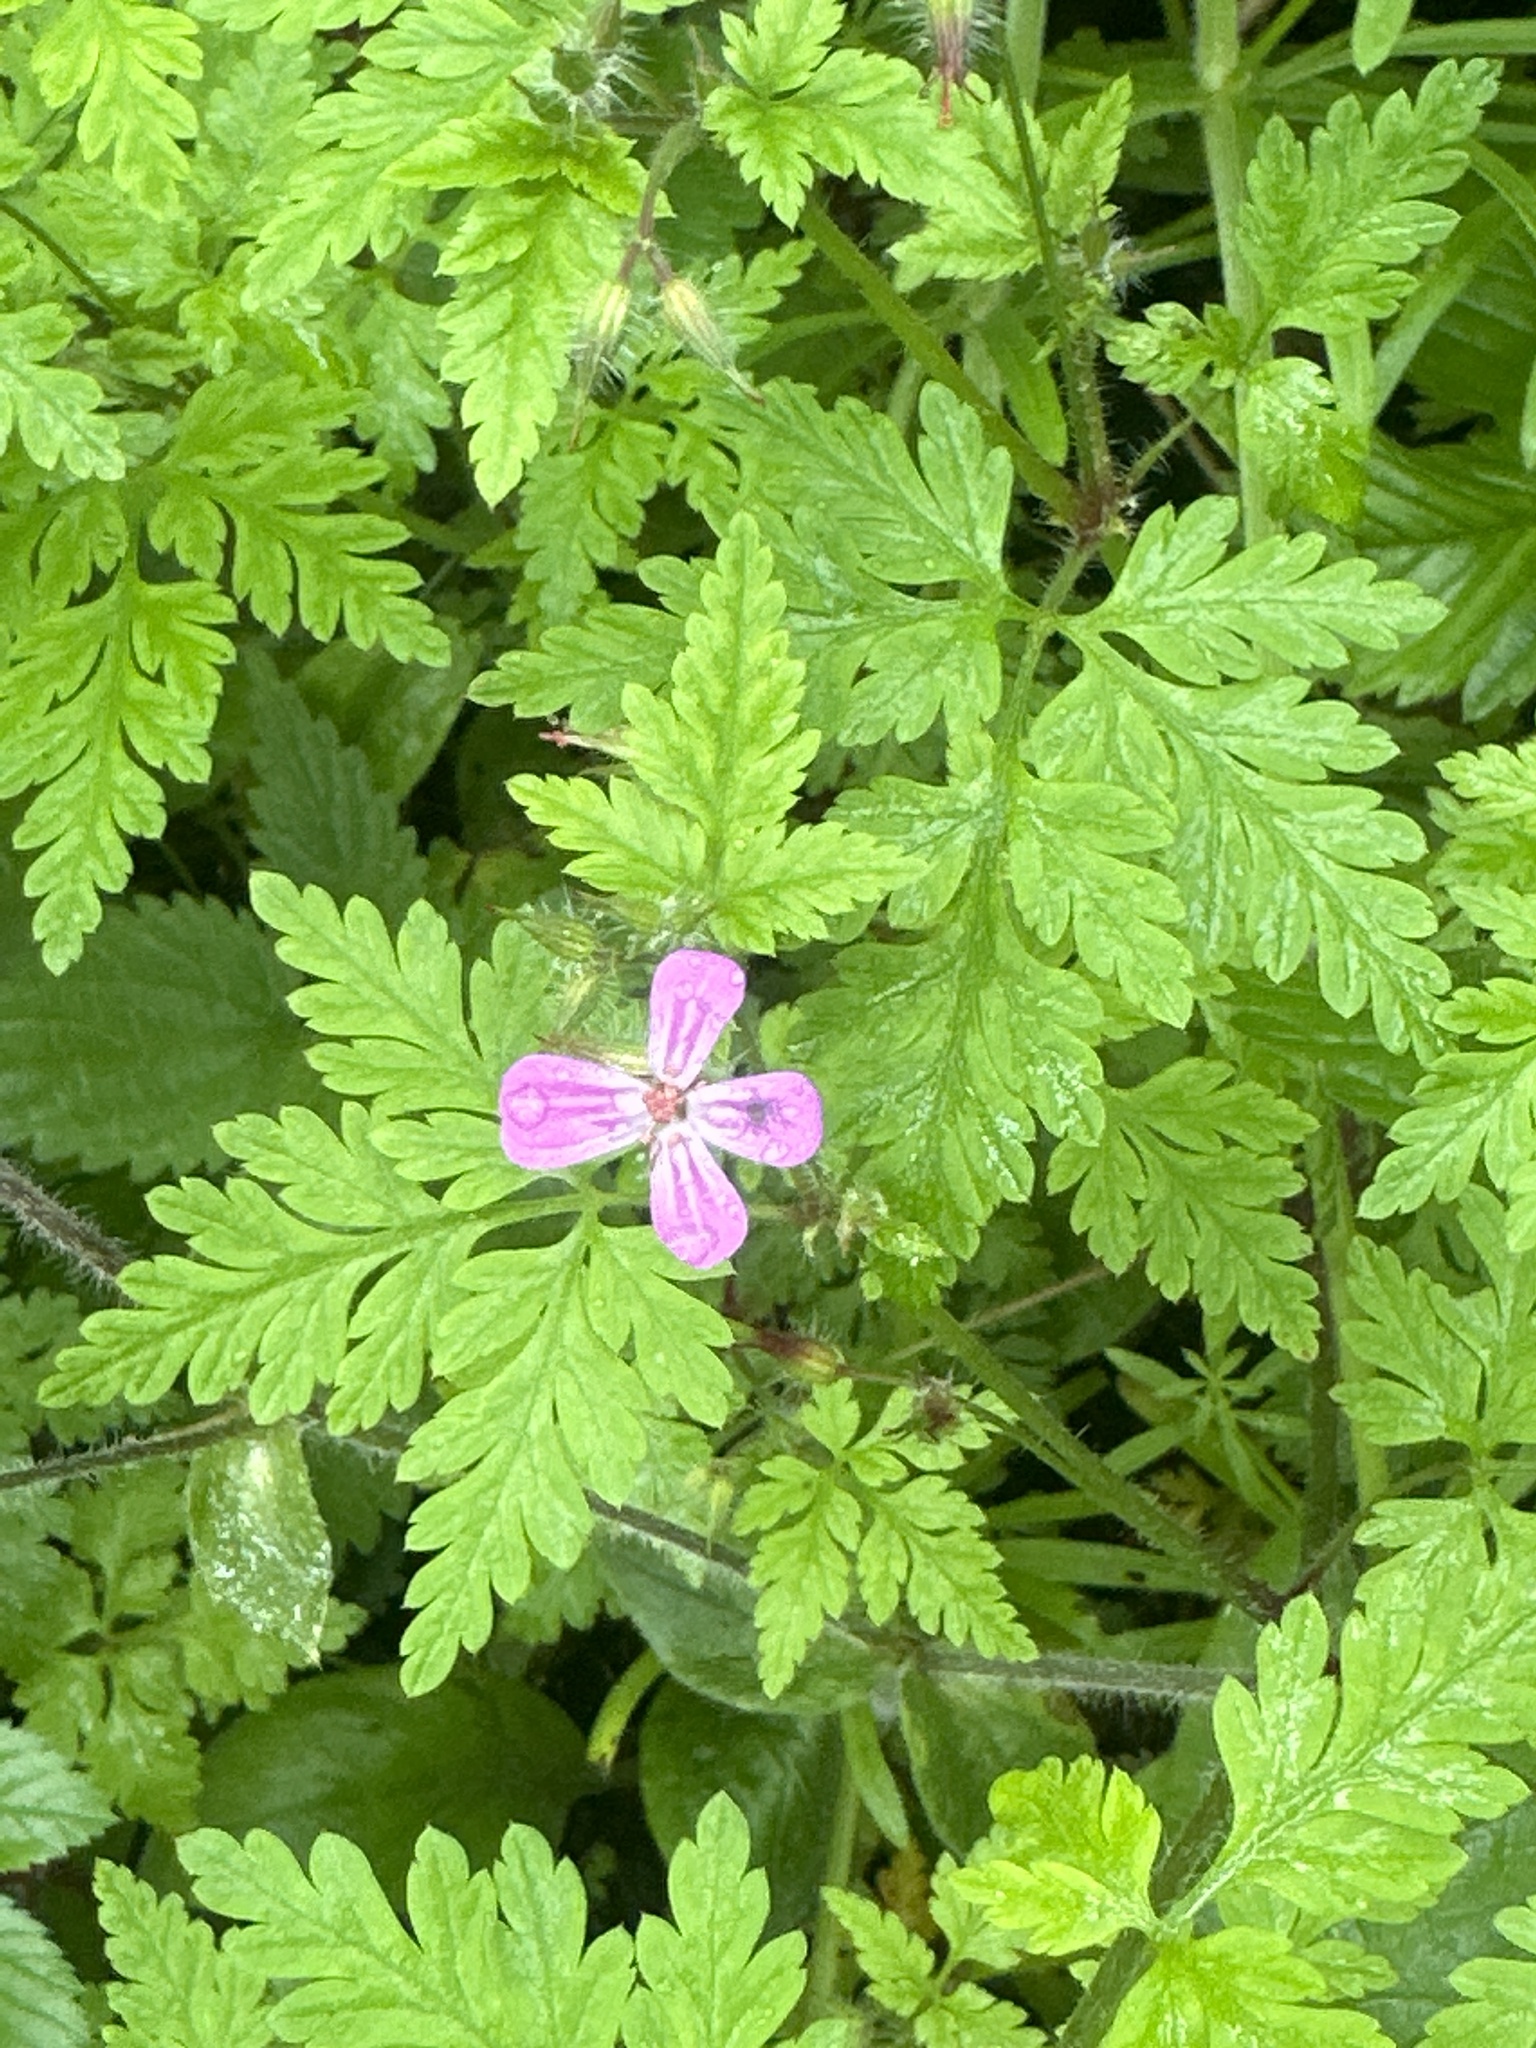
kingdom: Plantae
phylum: Tracheophyta
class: Magnoliopsida
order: Geraniales
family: Geraniaceae
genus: Geranium
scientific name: Geranium robertianum
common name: Herb-robert
